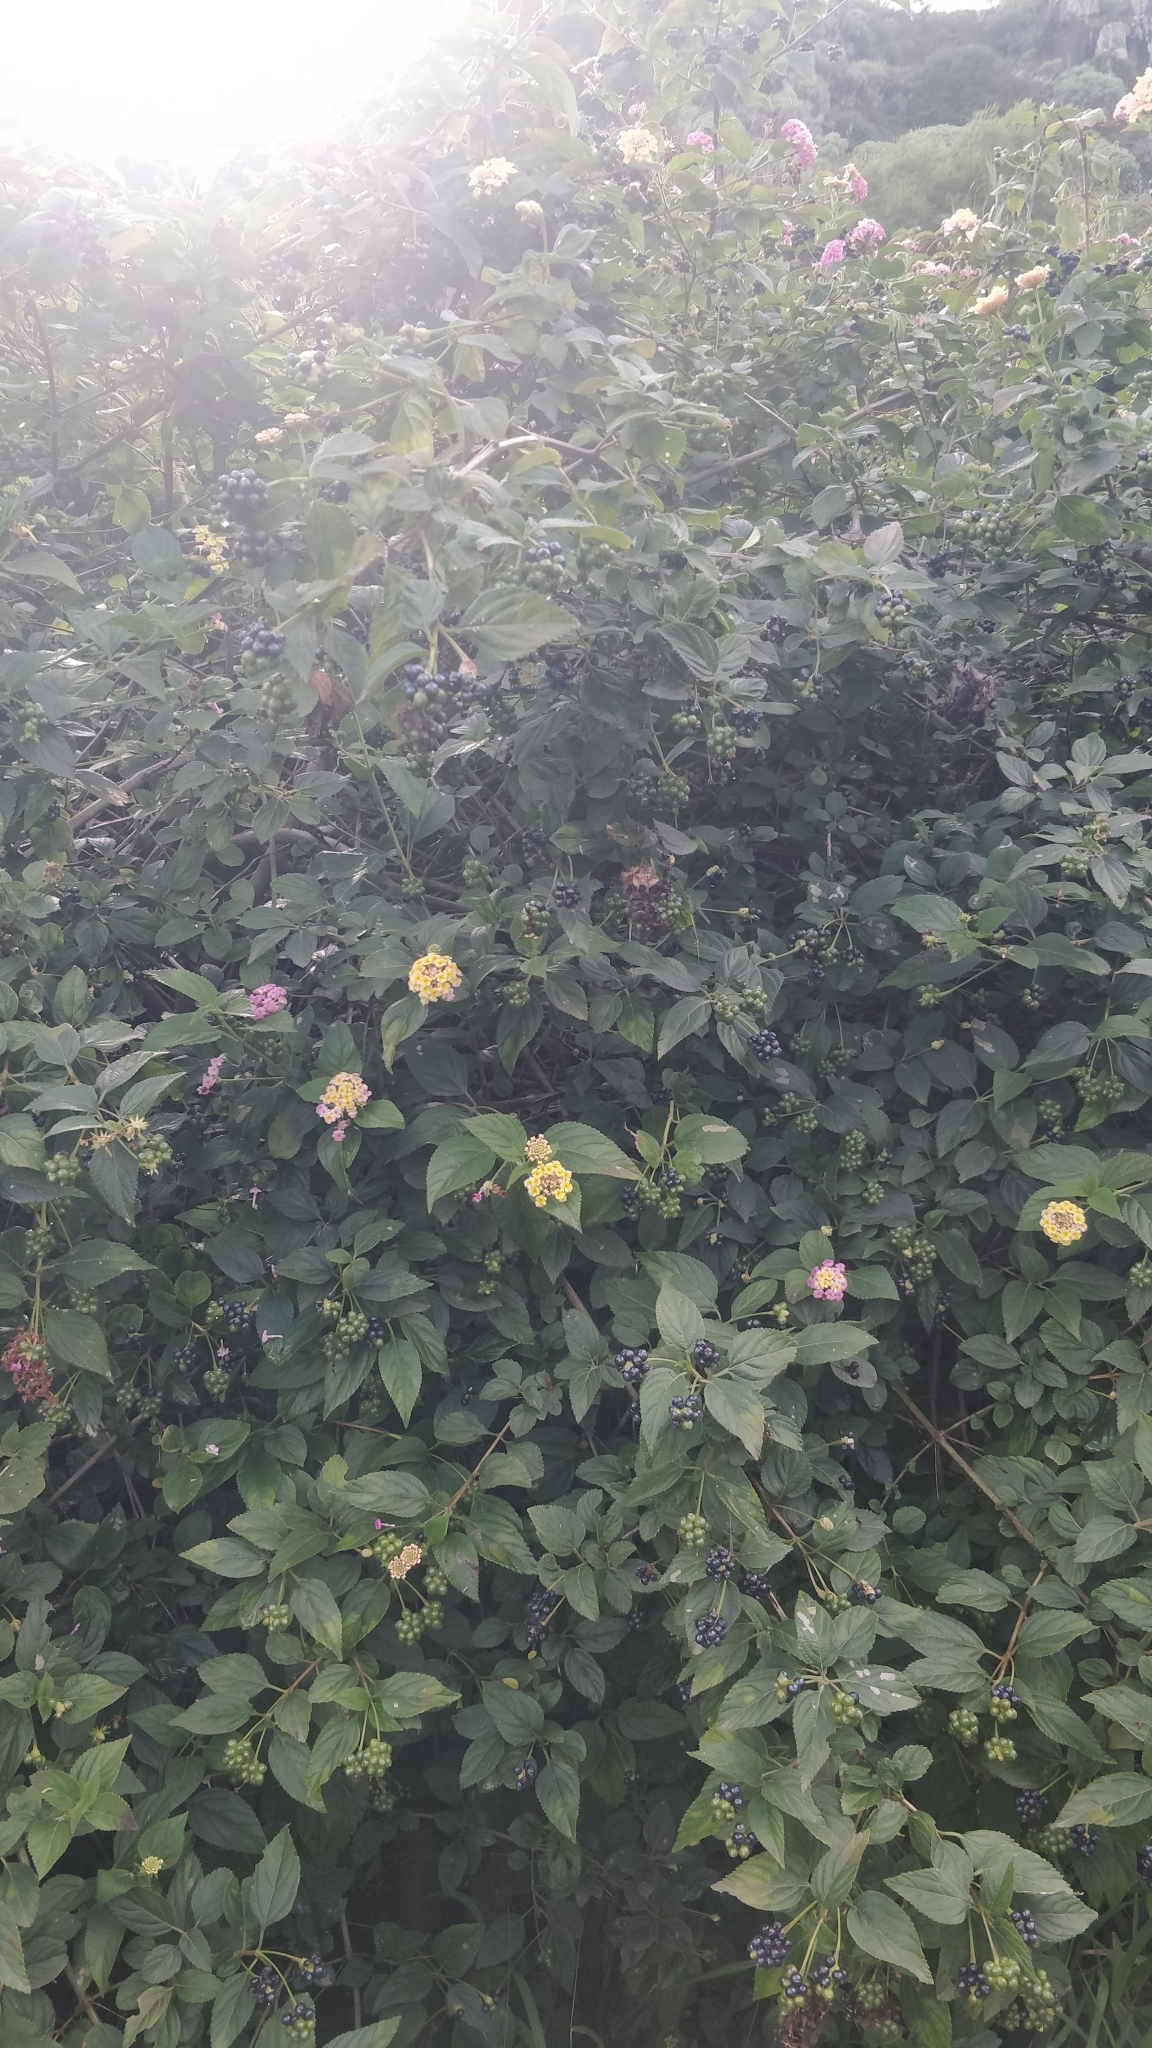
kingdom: Plantae
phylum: Tracheophyta
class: Magnoliopsida
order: Lamiales
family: Verbenaceae
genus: Lantana
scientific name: Lantana camara
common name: Lantana
